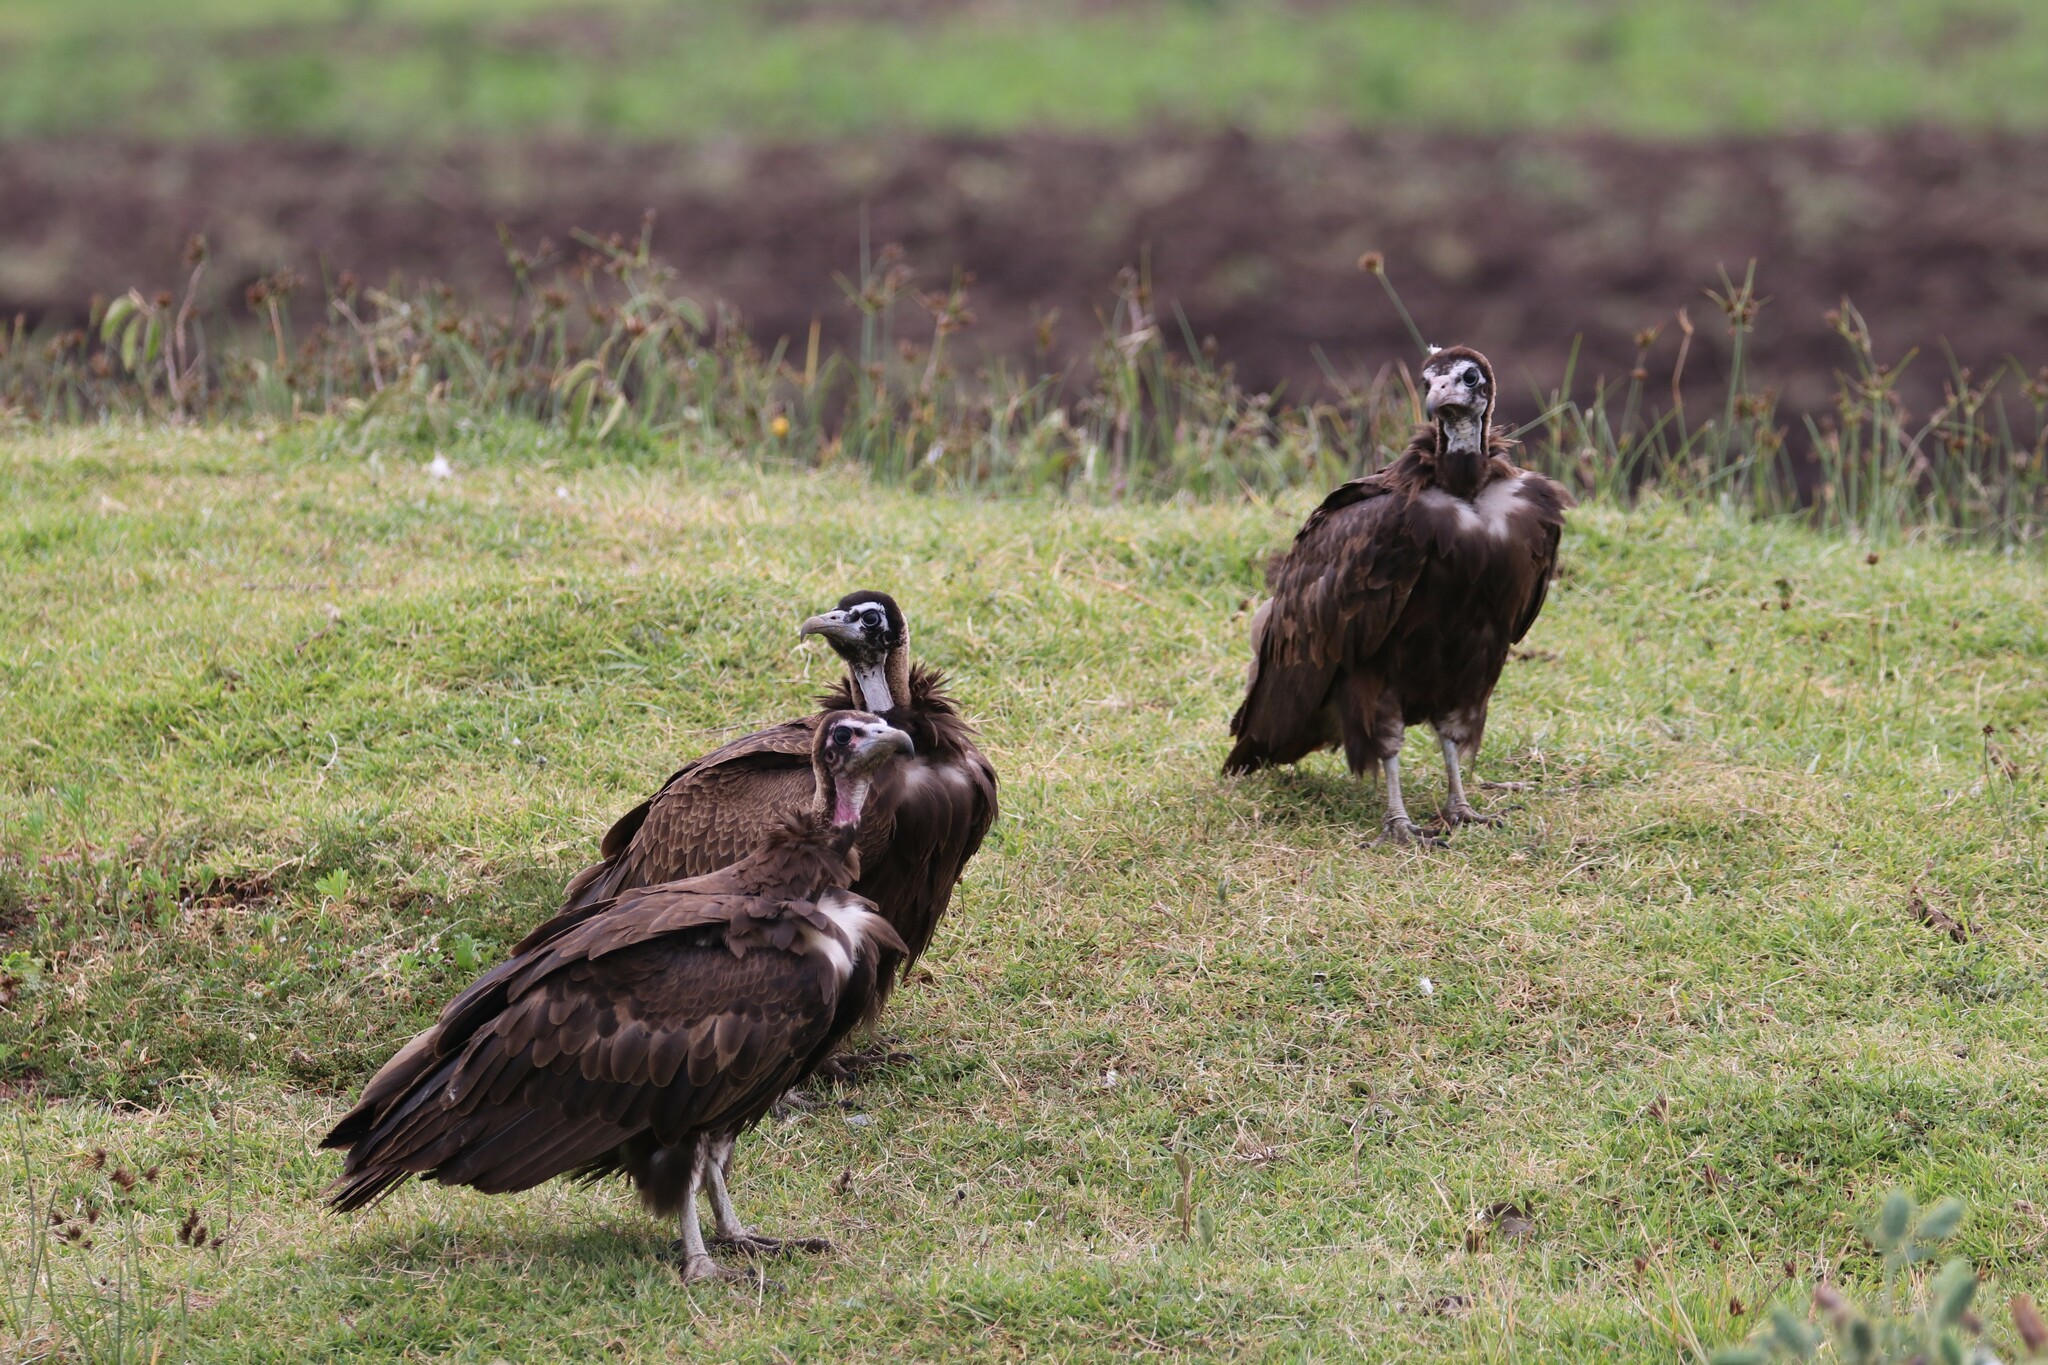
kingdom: Animalia
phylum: Chordata
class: Aves
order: Accipitriformes
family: Accipitridae
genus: Necrosyrtes
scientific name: Necrosyrtes monachus
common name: Hooded vulture
